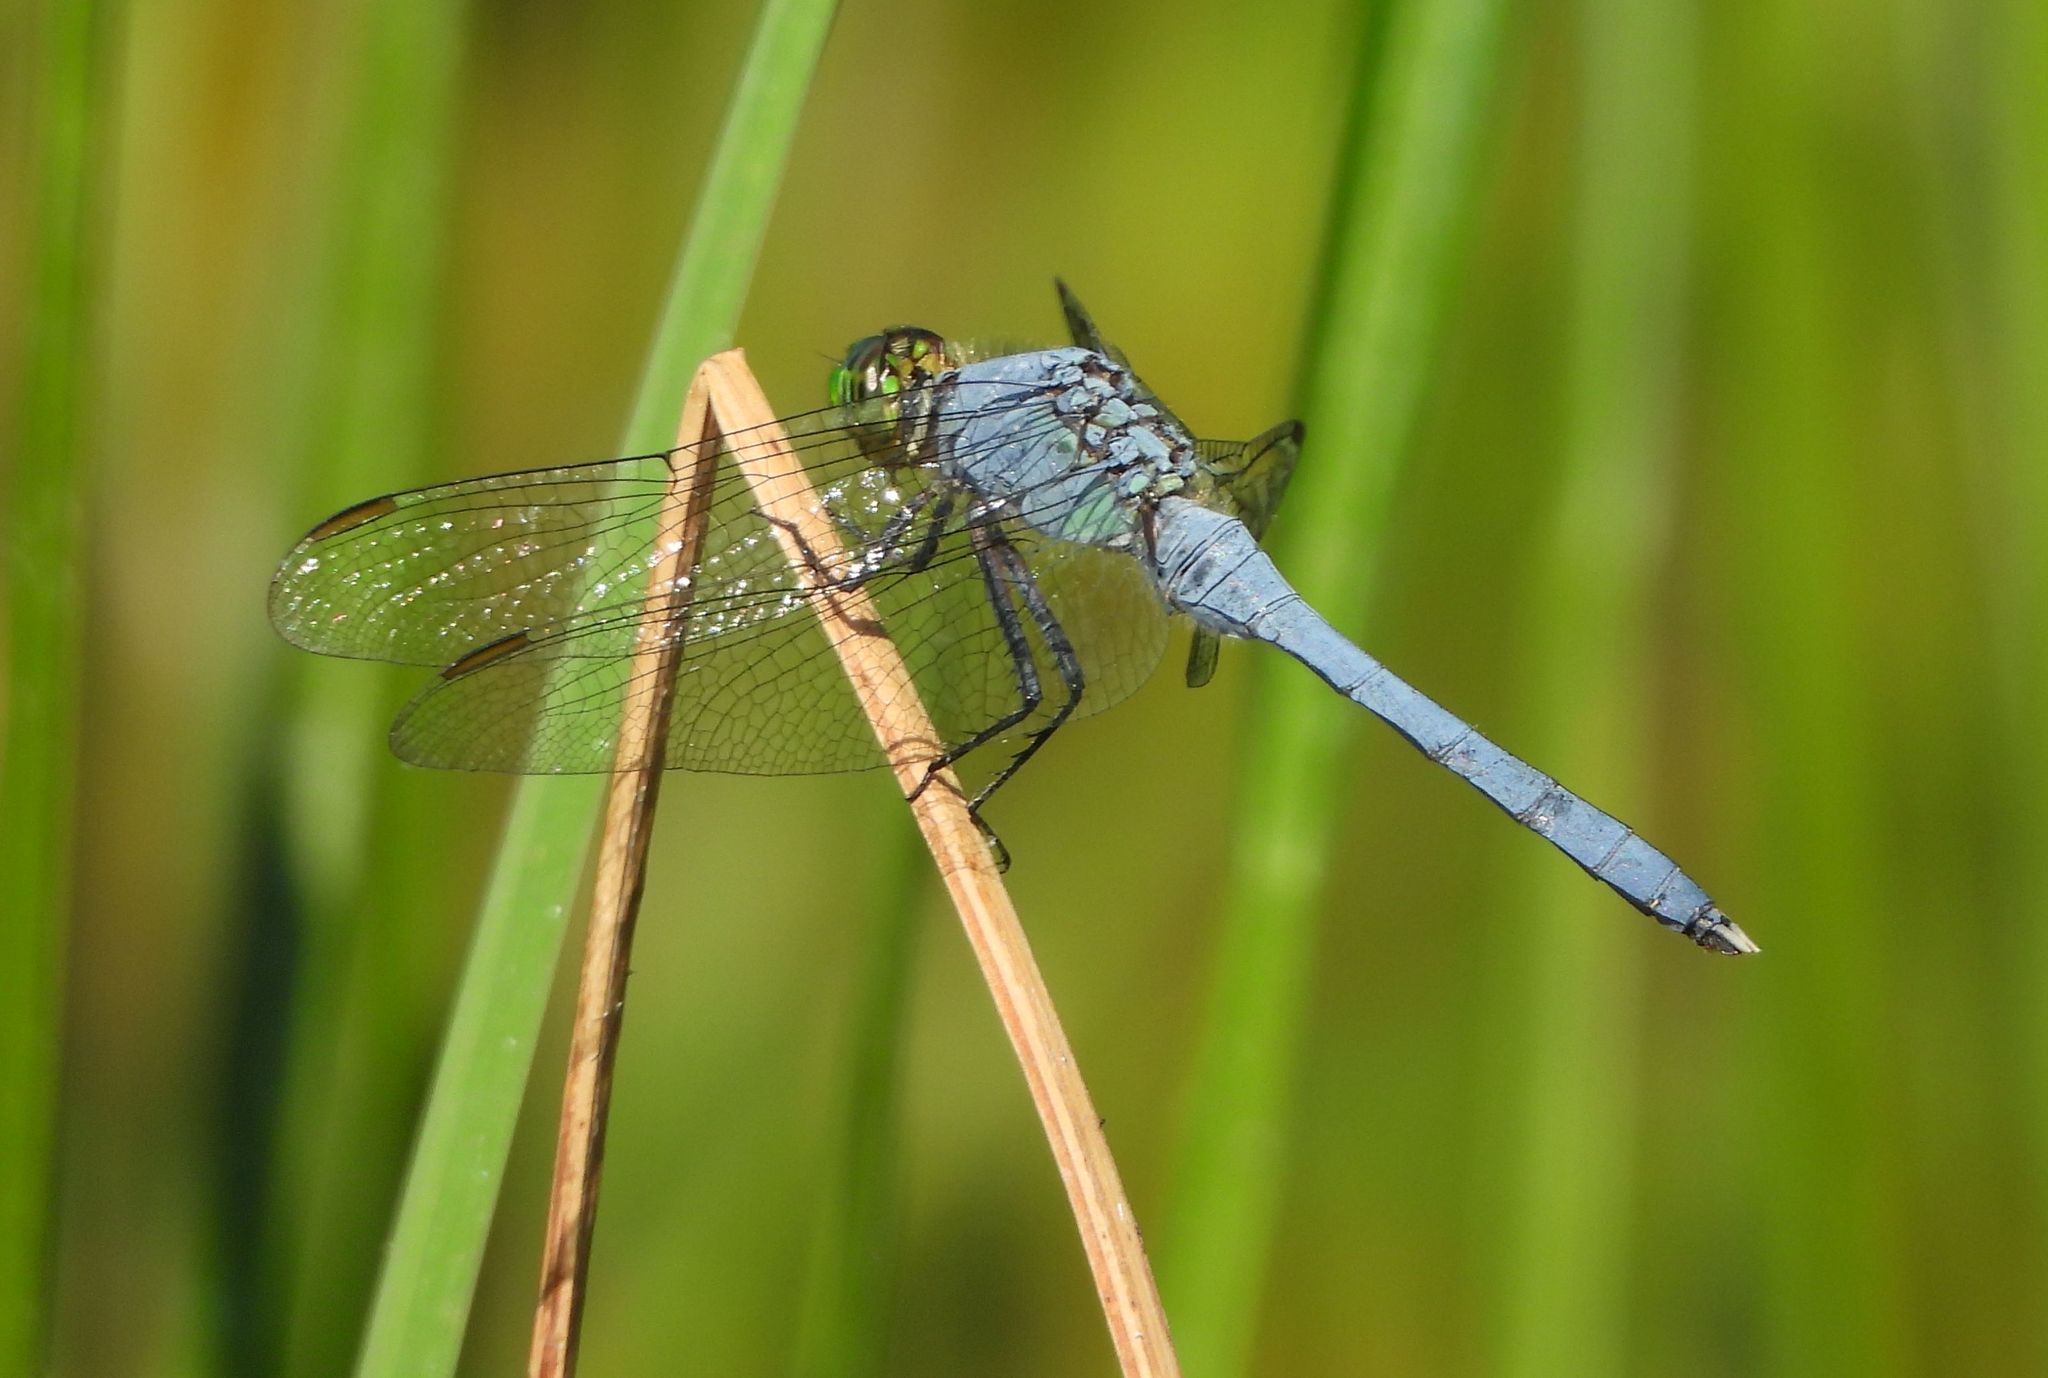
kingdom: Animalia
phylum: Arthropoda
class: Insecta
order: Odonata
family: Libellulidae
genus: Erythemis
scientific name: Erythemis simplicicollis
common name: Eastern pondhawk
